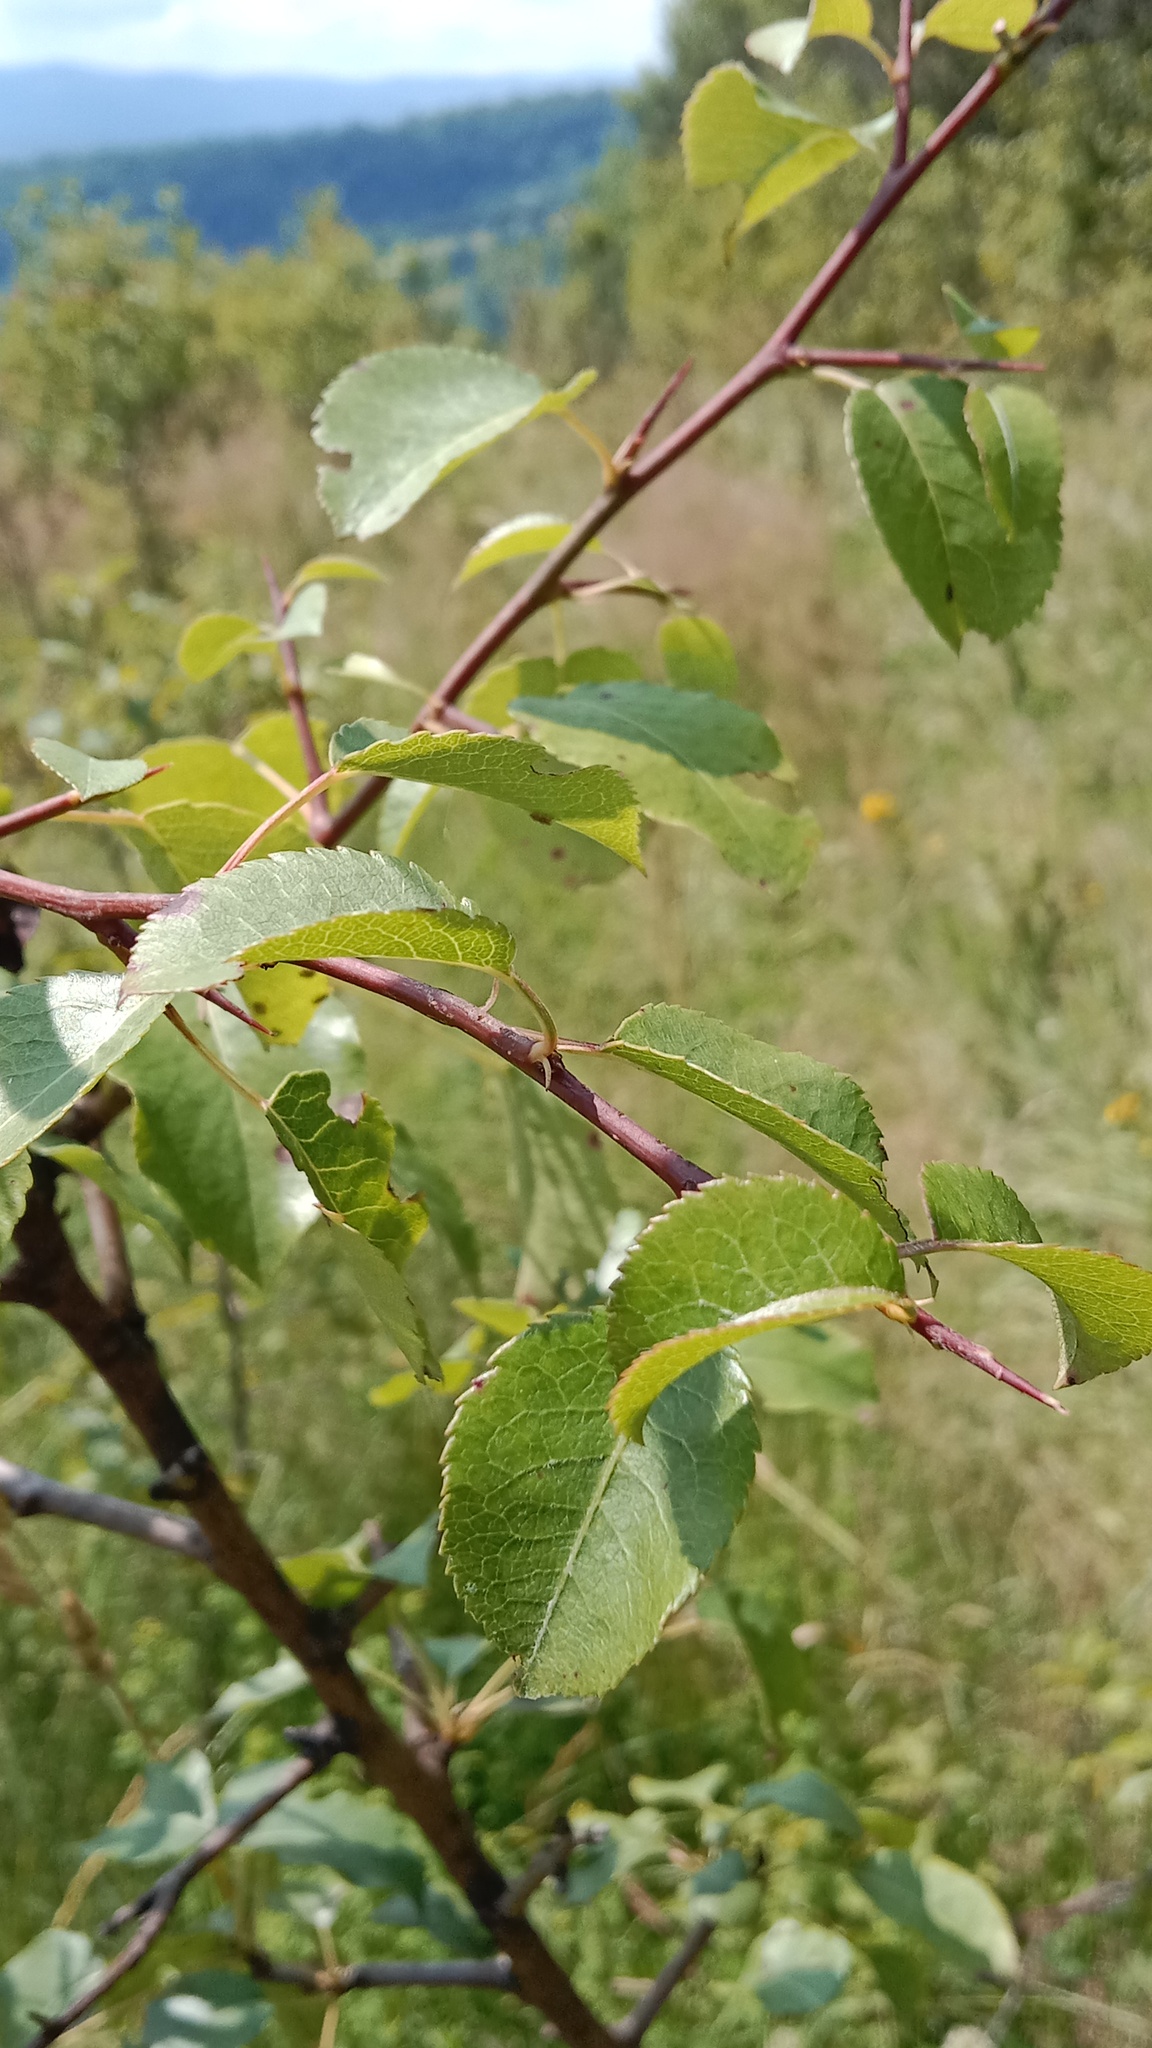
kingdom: Plantae
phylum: Tracheophyta
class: Magnoliopsida
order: Rosales
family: Rosaceae
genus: Prunus
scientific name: Prunus spinosa
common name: Blackthorn
